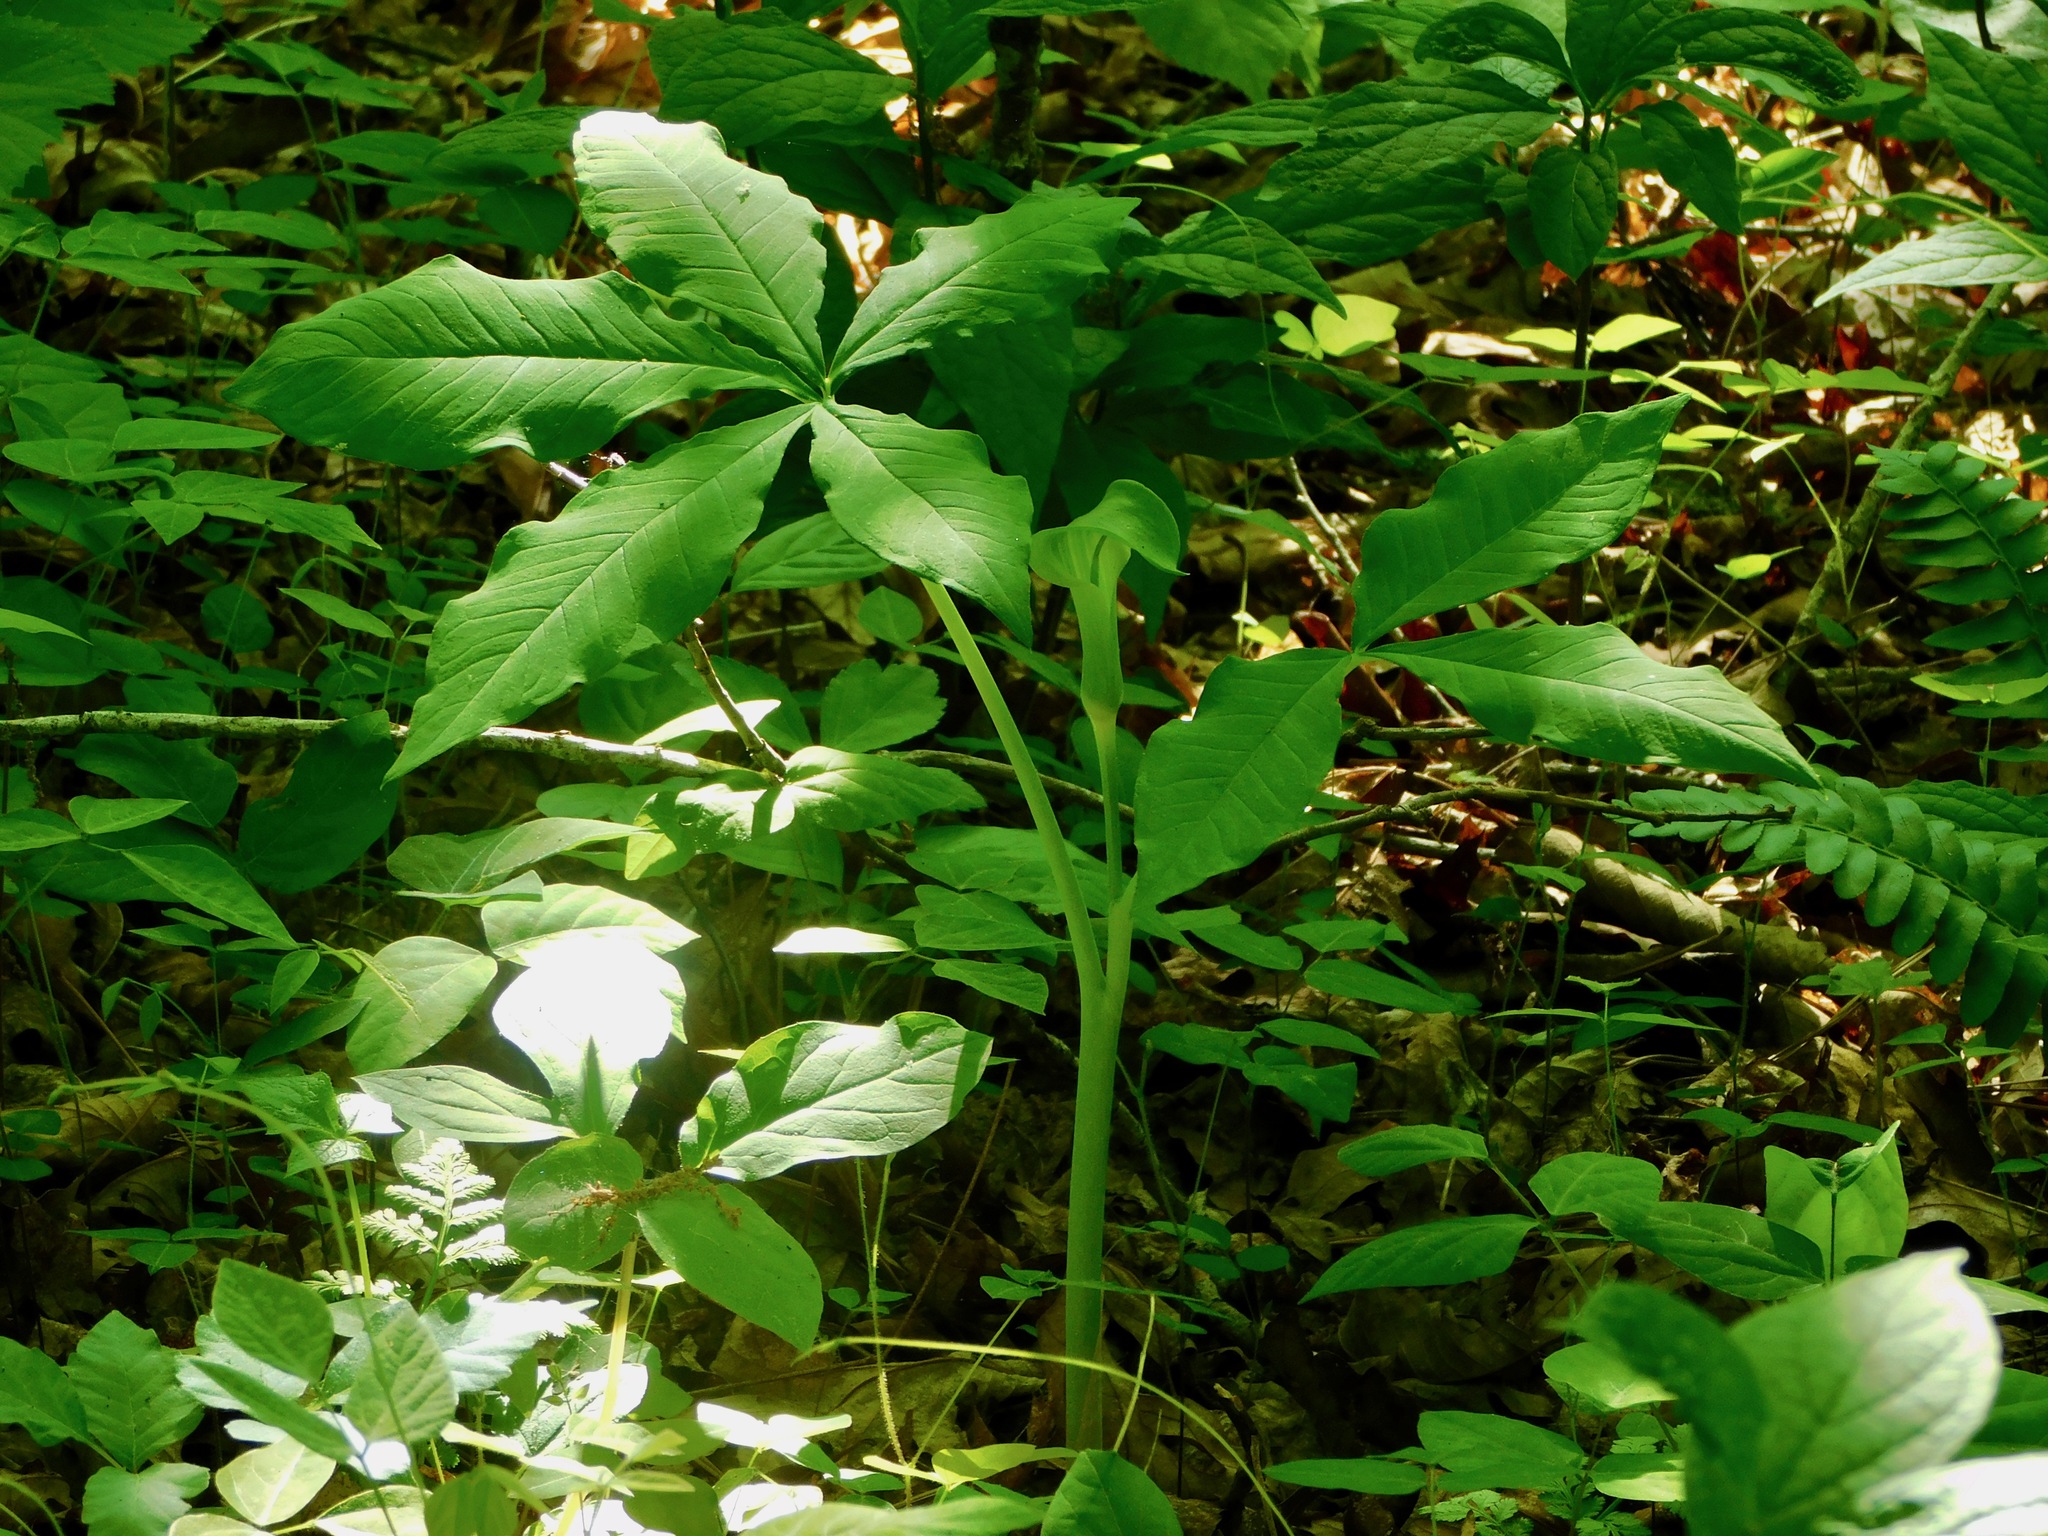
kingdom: Plantae
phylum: Tracheophyta
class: Liliopsida
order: Alismatales
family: Araceae
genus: Arisaema
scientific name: Arisaema quinatum
